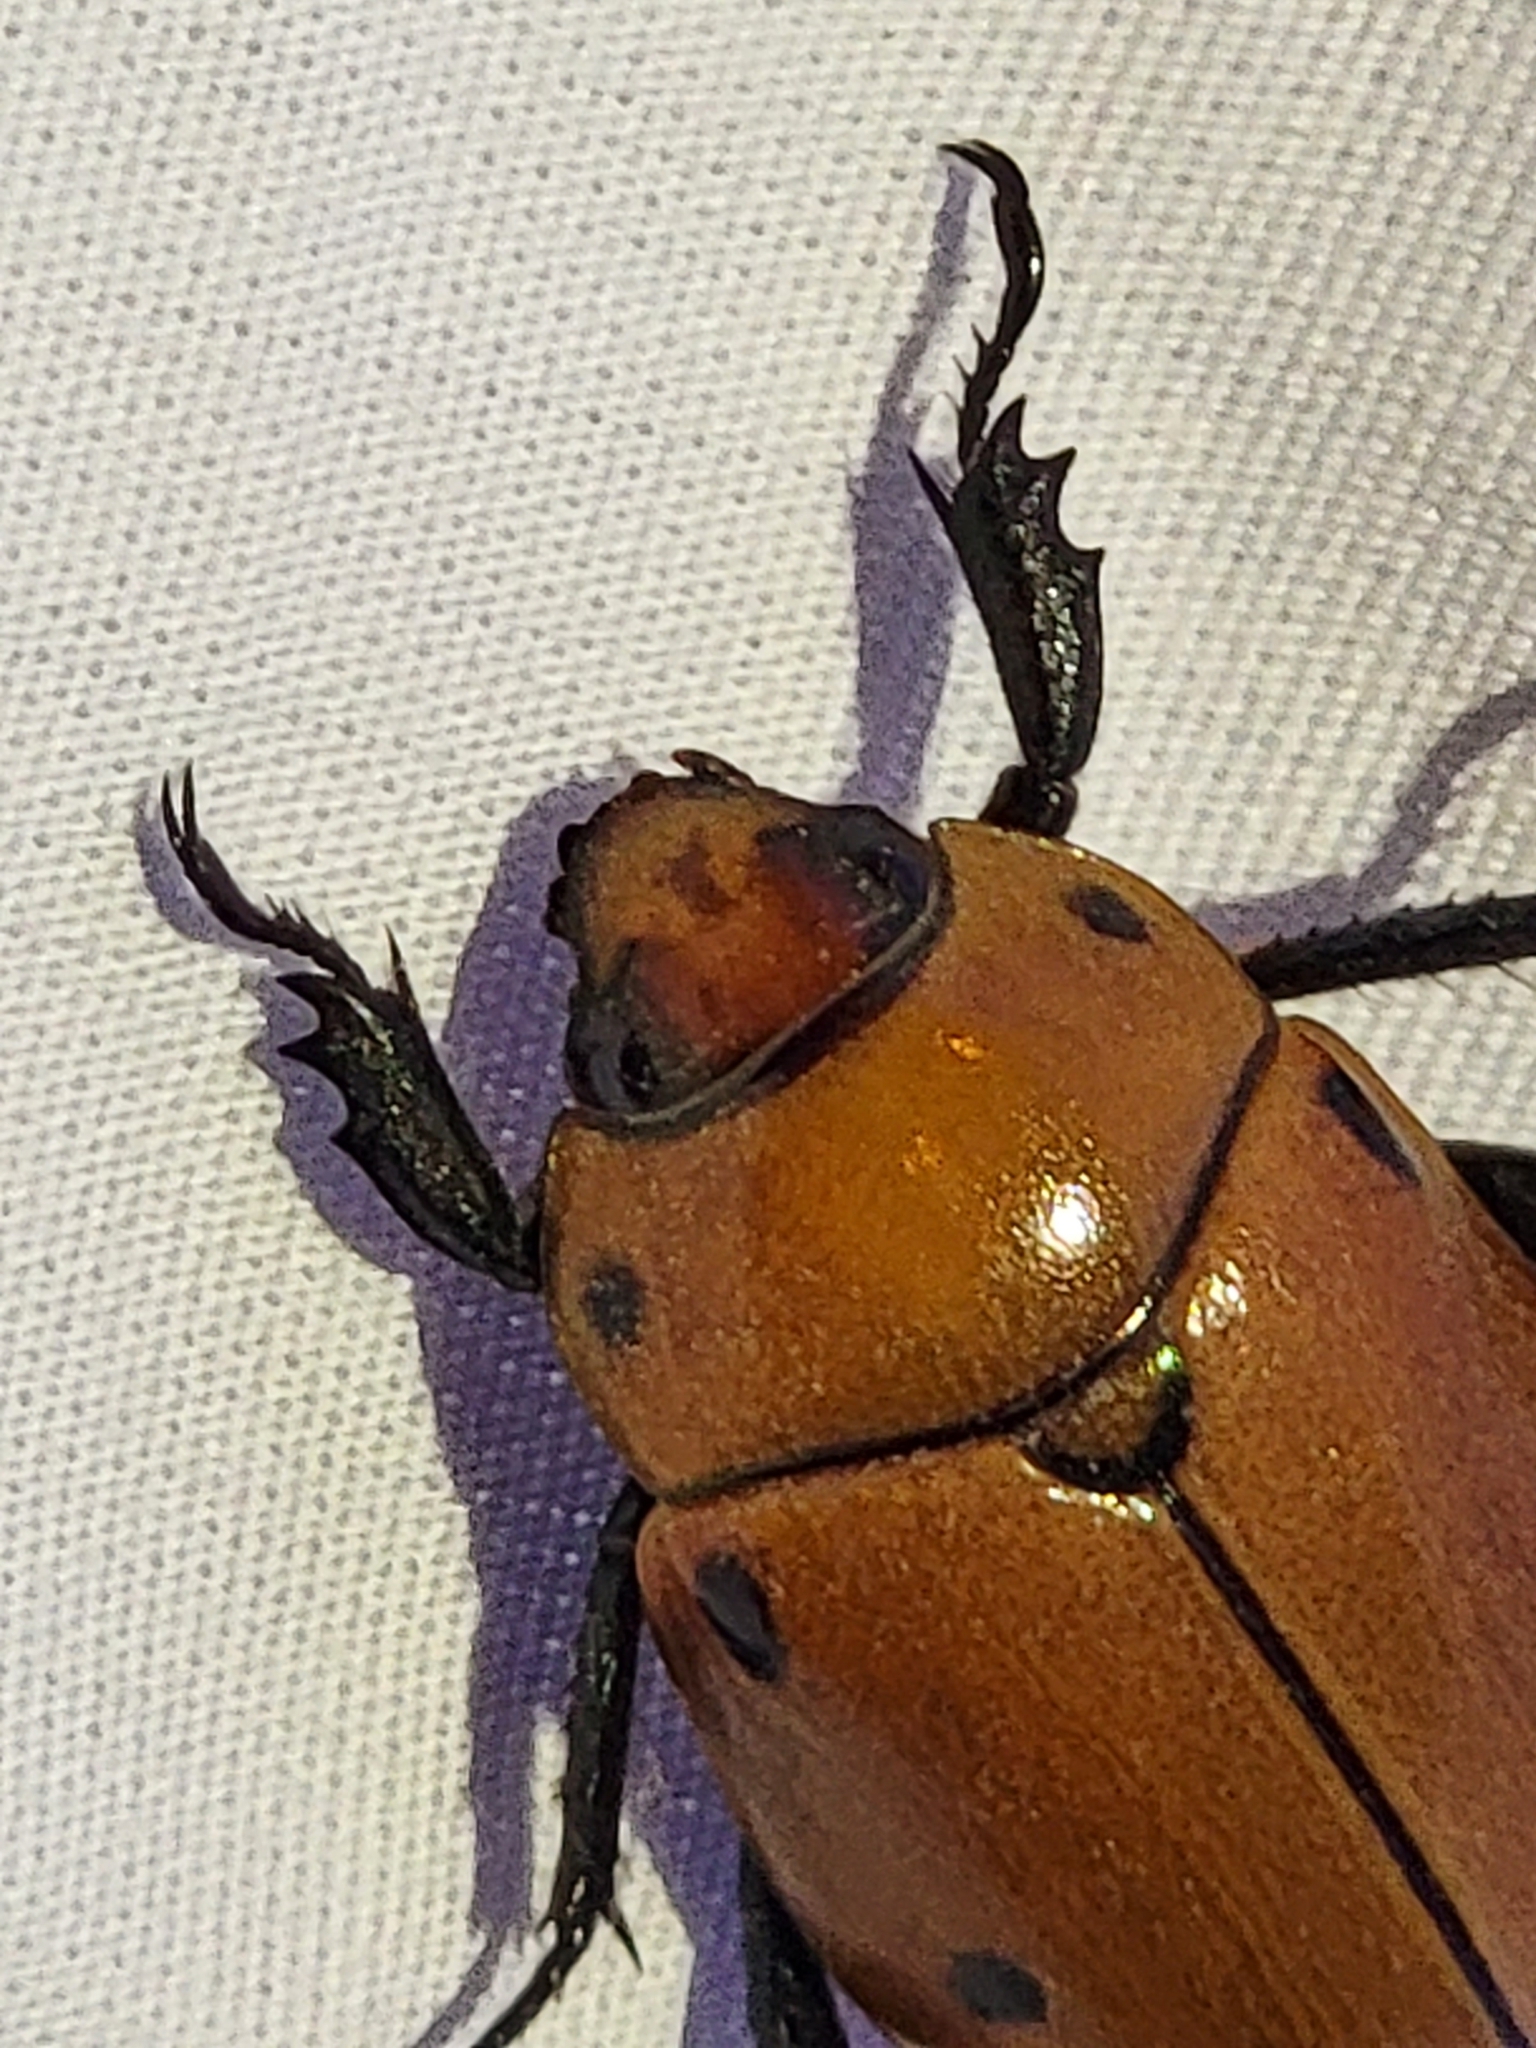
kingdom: Animalia
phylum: Arthropoda
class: Insecta
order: Coleoptera
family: Scarabaeidae
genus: Pelidnota
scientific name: Pelidnota punctata
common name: Grapevine beetle
